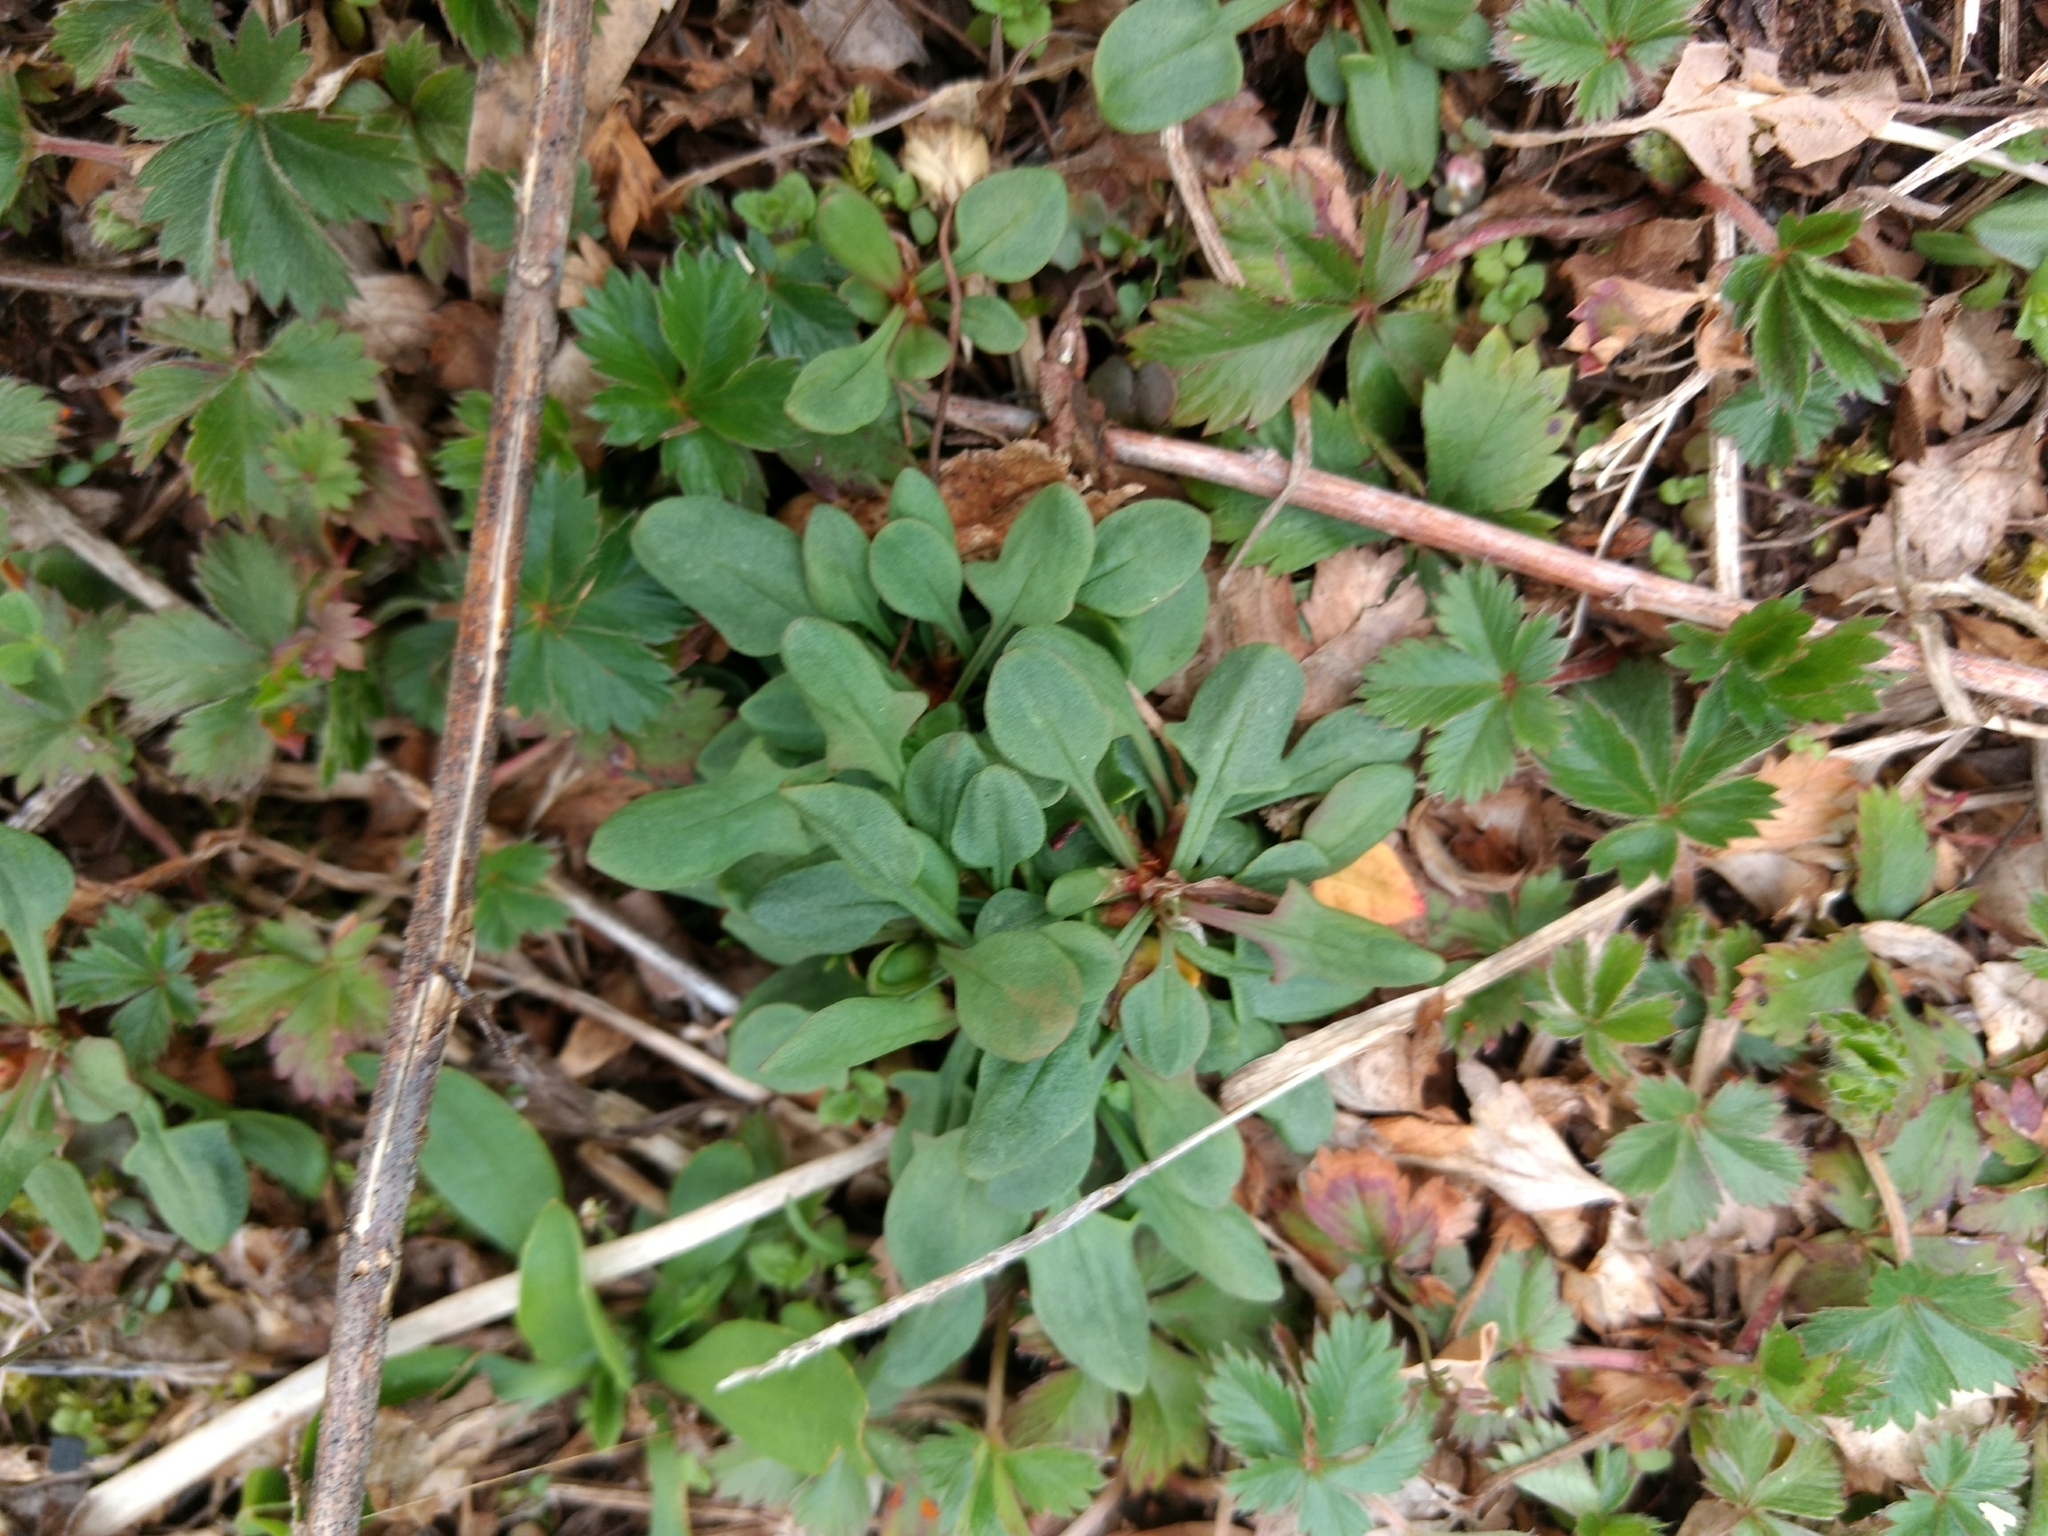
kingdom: Plantae
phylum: Tracheophyta
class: Magnoliopsida
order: Caryophyllales
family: Polygonaceae
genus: Rumex
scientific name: Rumex acetosella
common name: Common sheep sorrel
